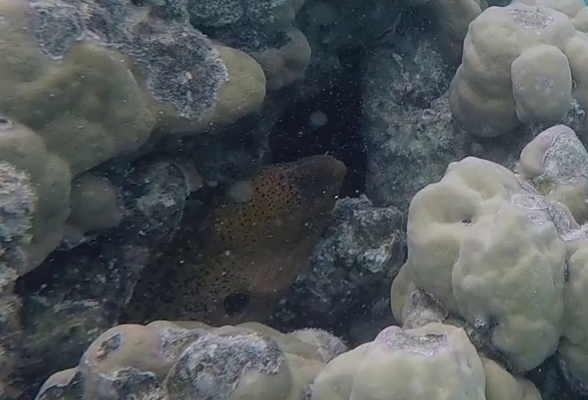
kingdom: Animalia
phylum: Chordata
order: Anguilliformes
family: Muraenidae
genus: Gymnothorax
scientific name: Gymnothorax javanicus
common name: Giant moray
